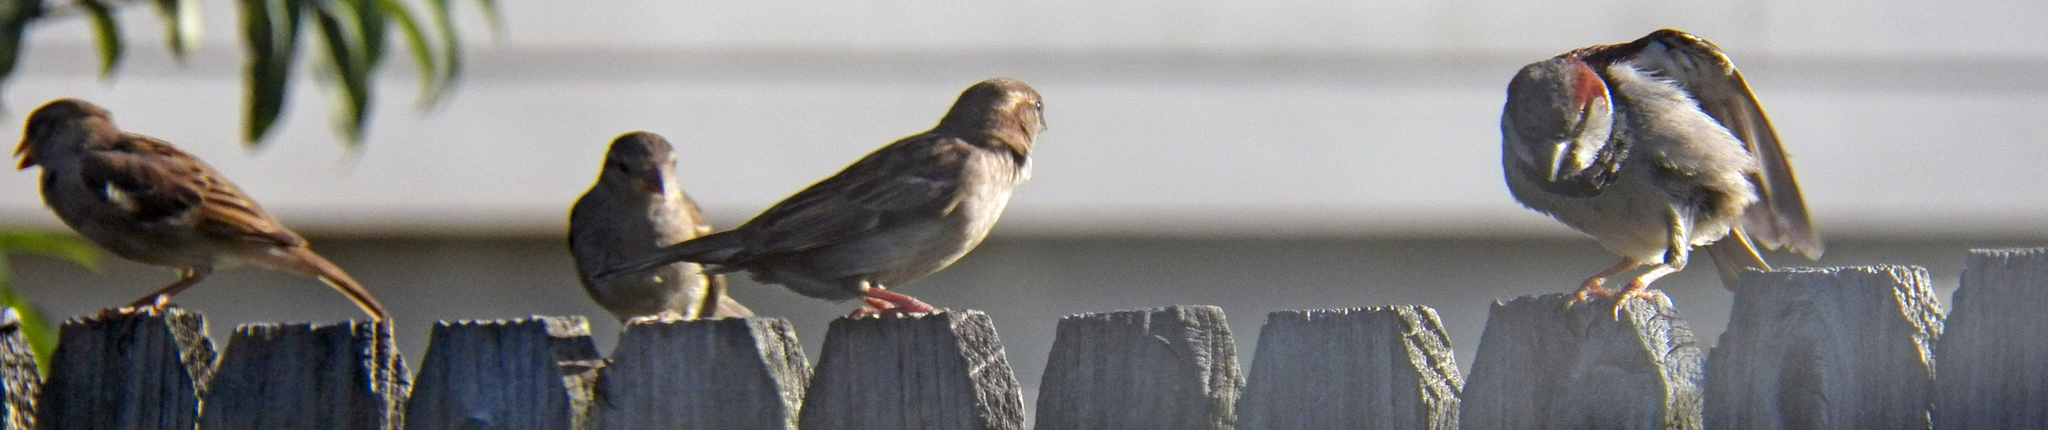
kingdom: Animalia
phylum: Chordata
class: Aves
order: Passeriformes
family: Passeridae
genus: Passer
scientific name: Passer domesticus
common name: House sparrow
